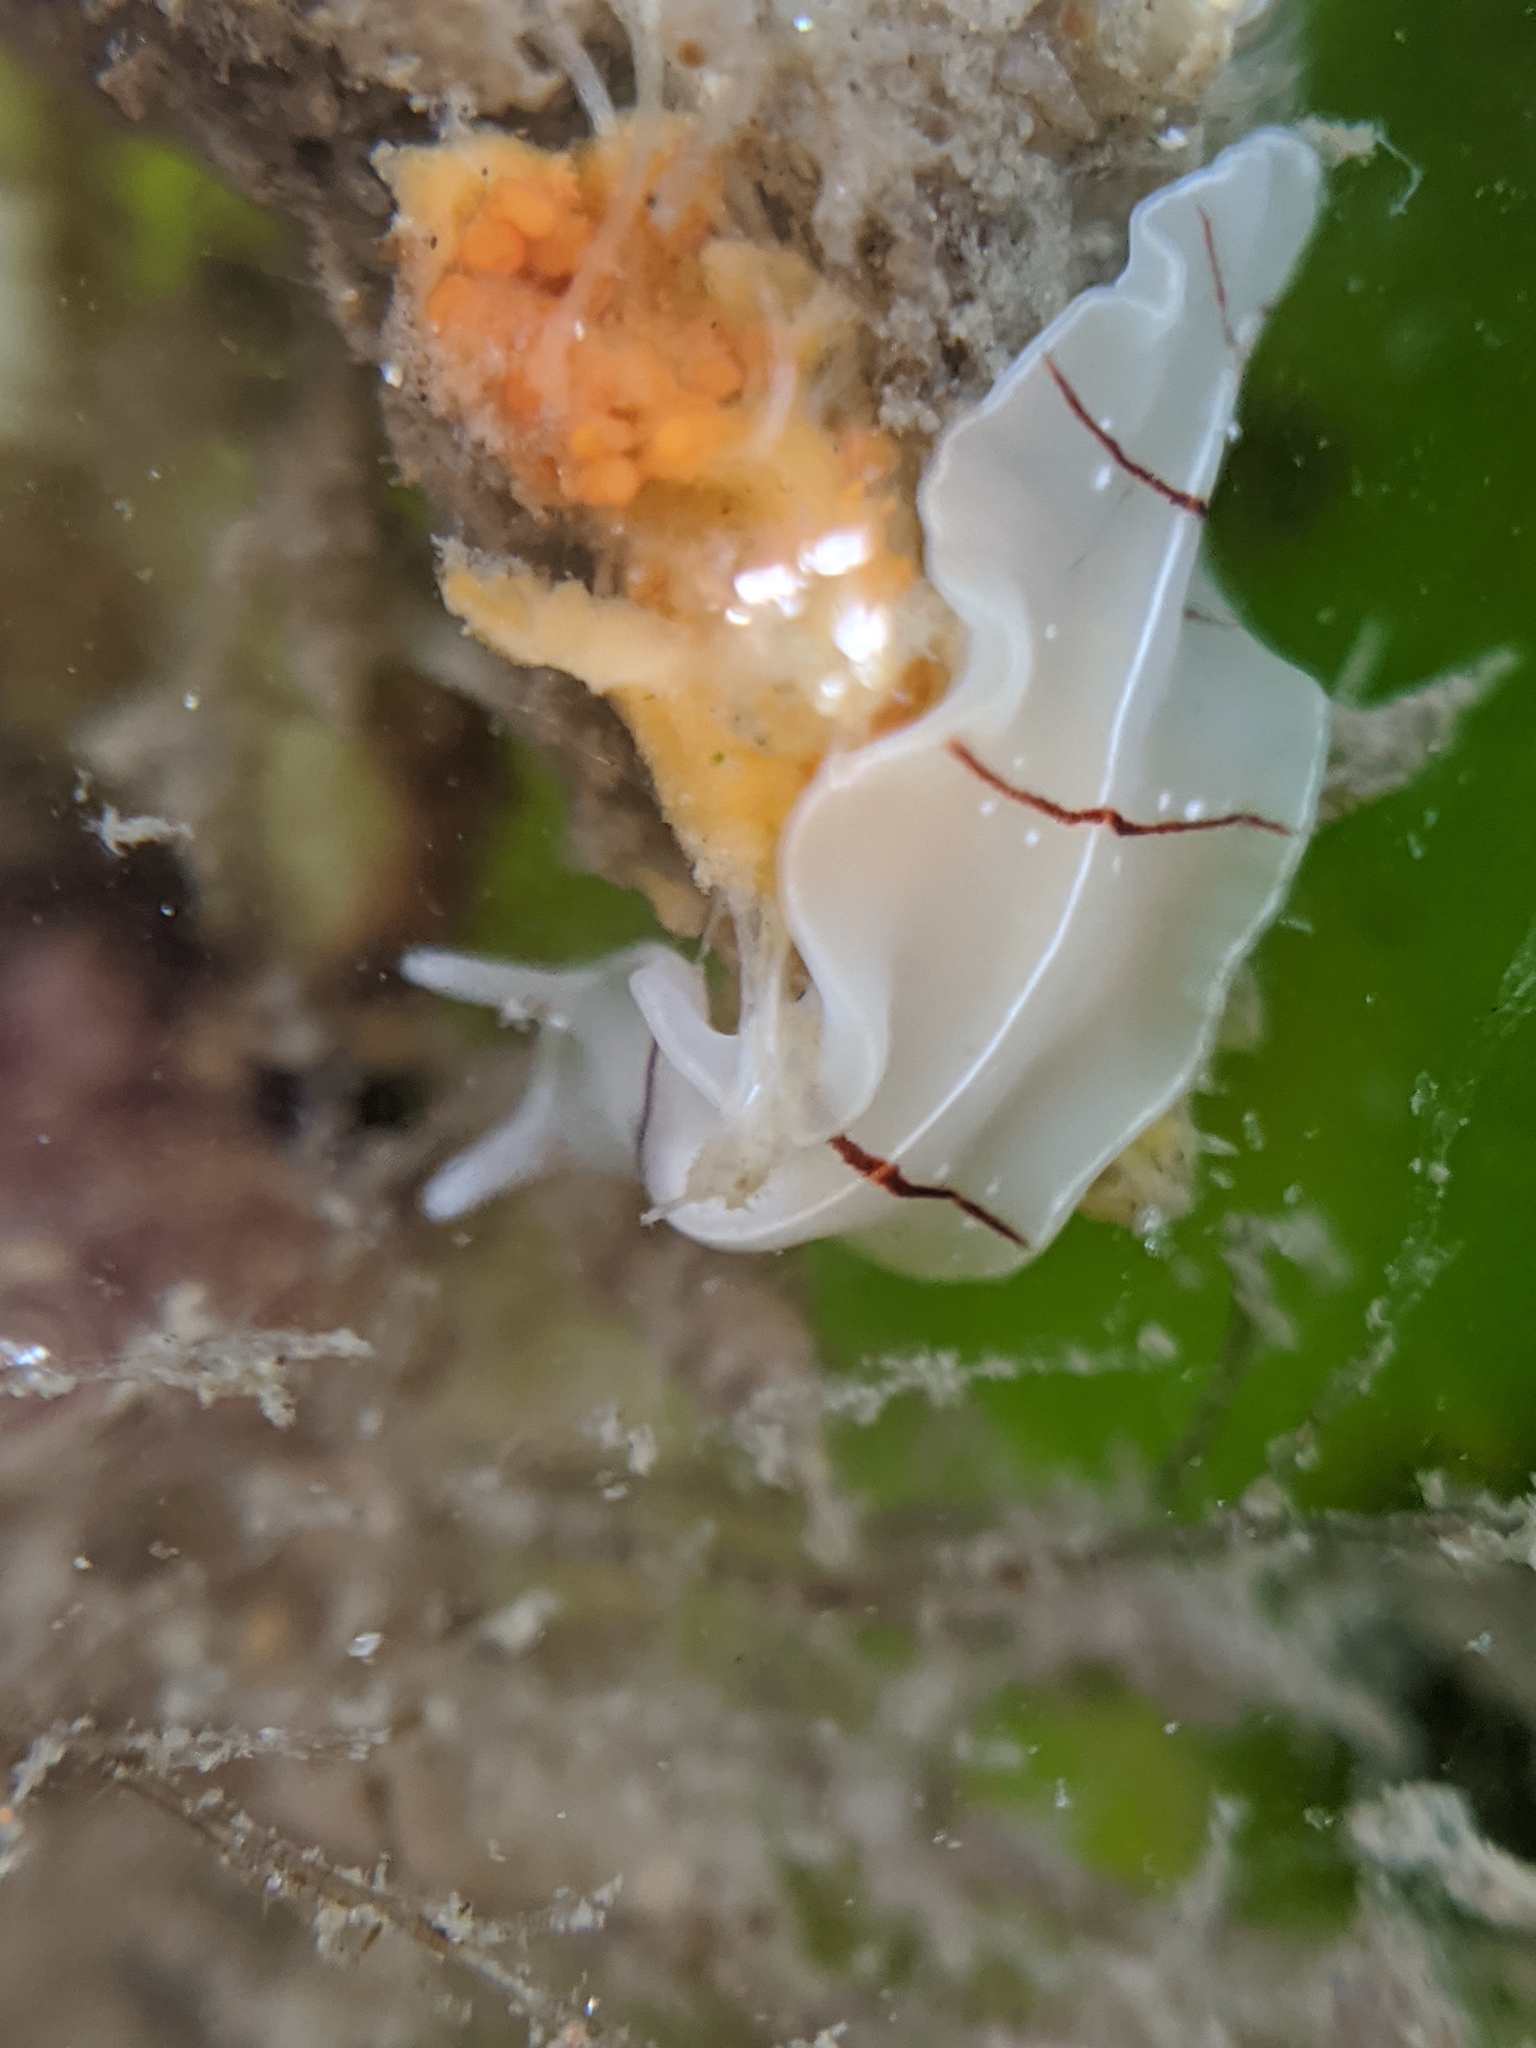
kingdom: Animalia
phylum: Platyhelminthes
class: Turbellaria
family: Euryleptidae
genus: Eurylepta
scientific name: Eurylepta californica
